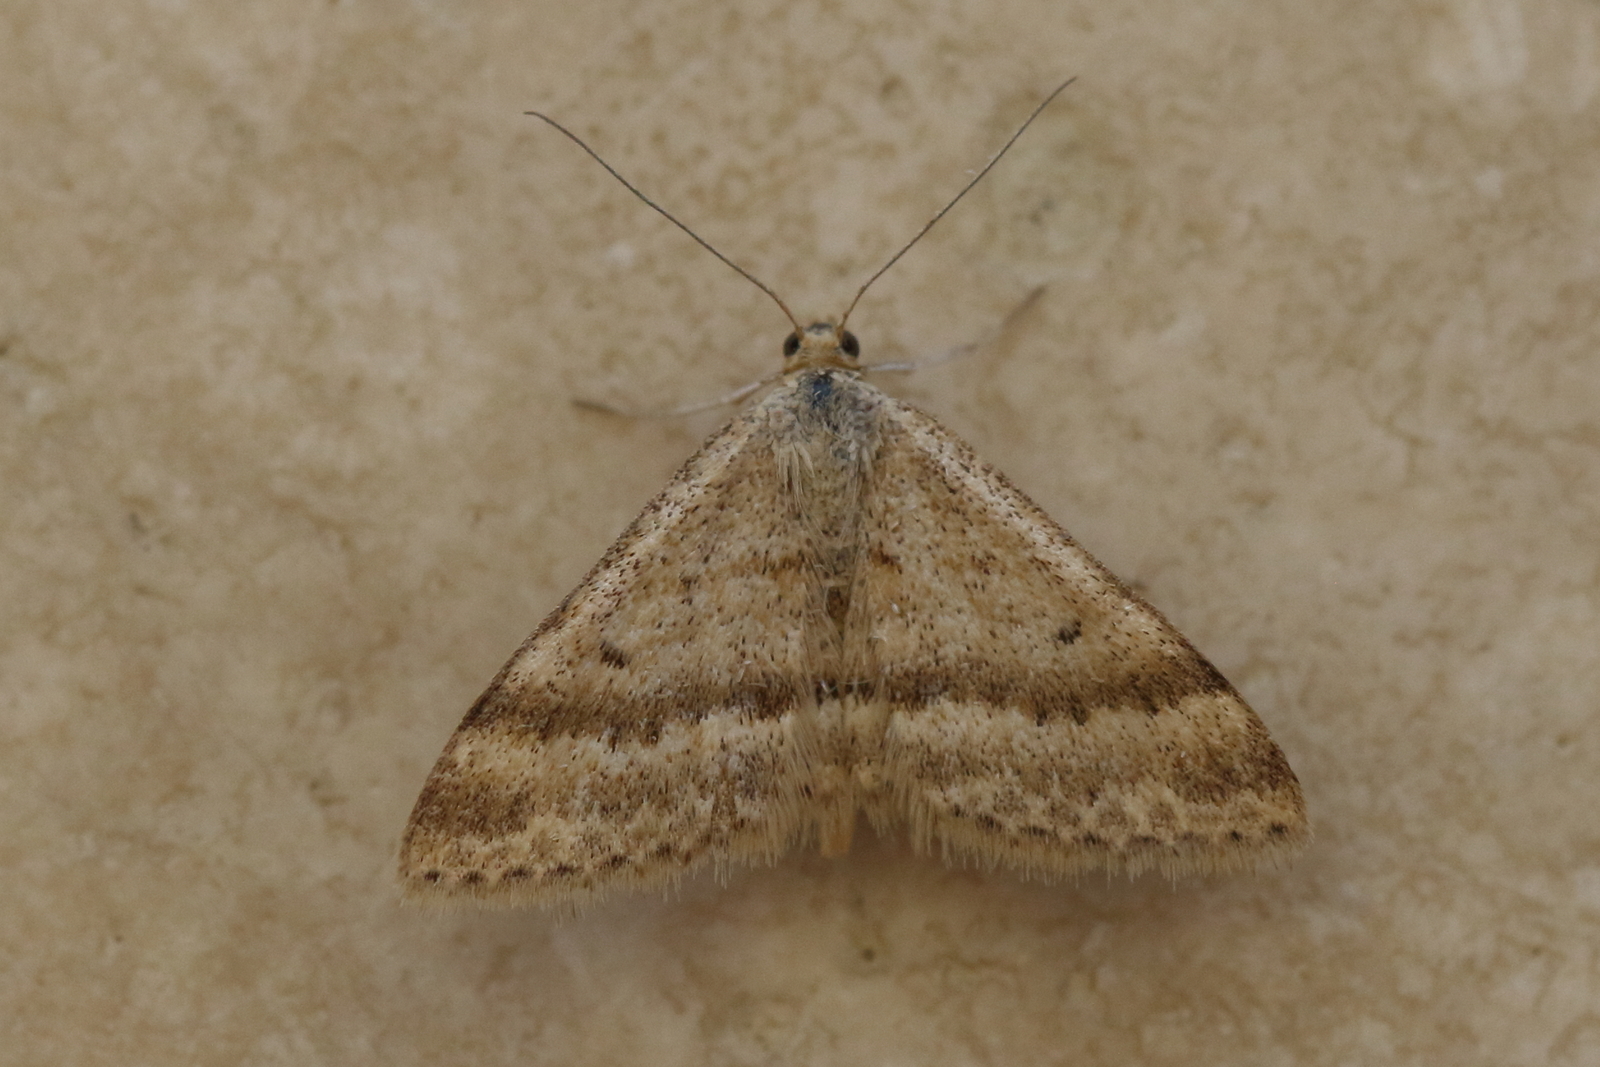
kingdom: Animalia
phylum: Arthropoda
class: Insecta
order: Lepidoptera
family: Geometridae
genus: Scopula
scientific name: Scopula lydia
